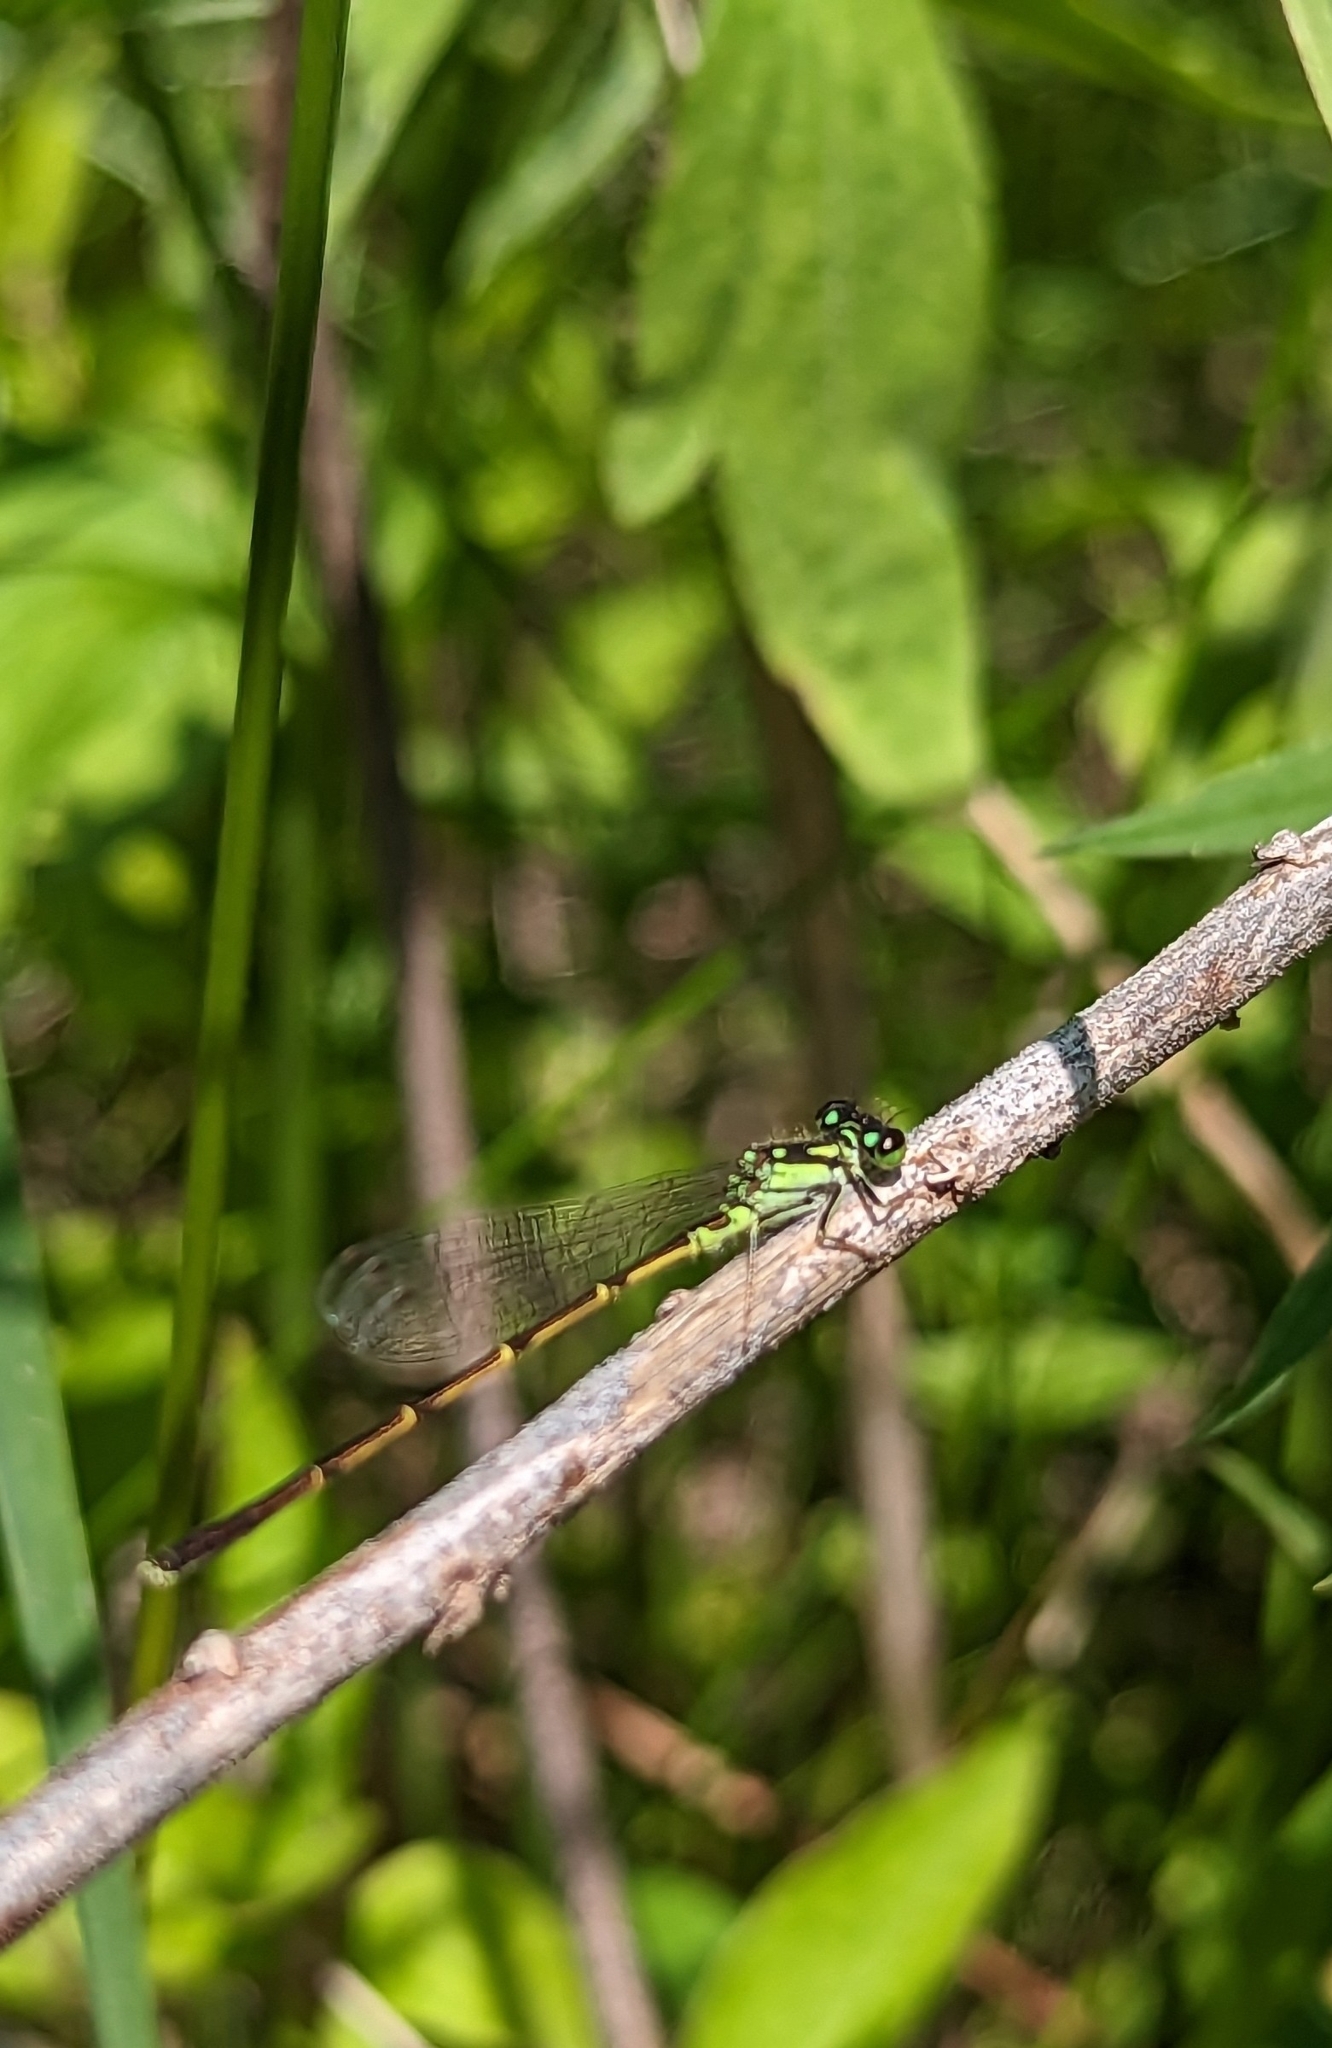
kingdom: Animalia
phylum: Arthropoda
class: Insecta
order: Odonata
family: Coenagrionidae
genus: Ischnura
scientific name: Ischnura posita
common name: Fragile forktail
